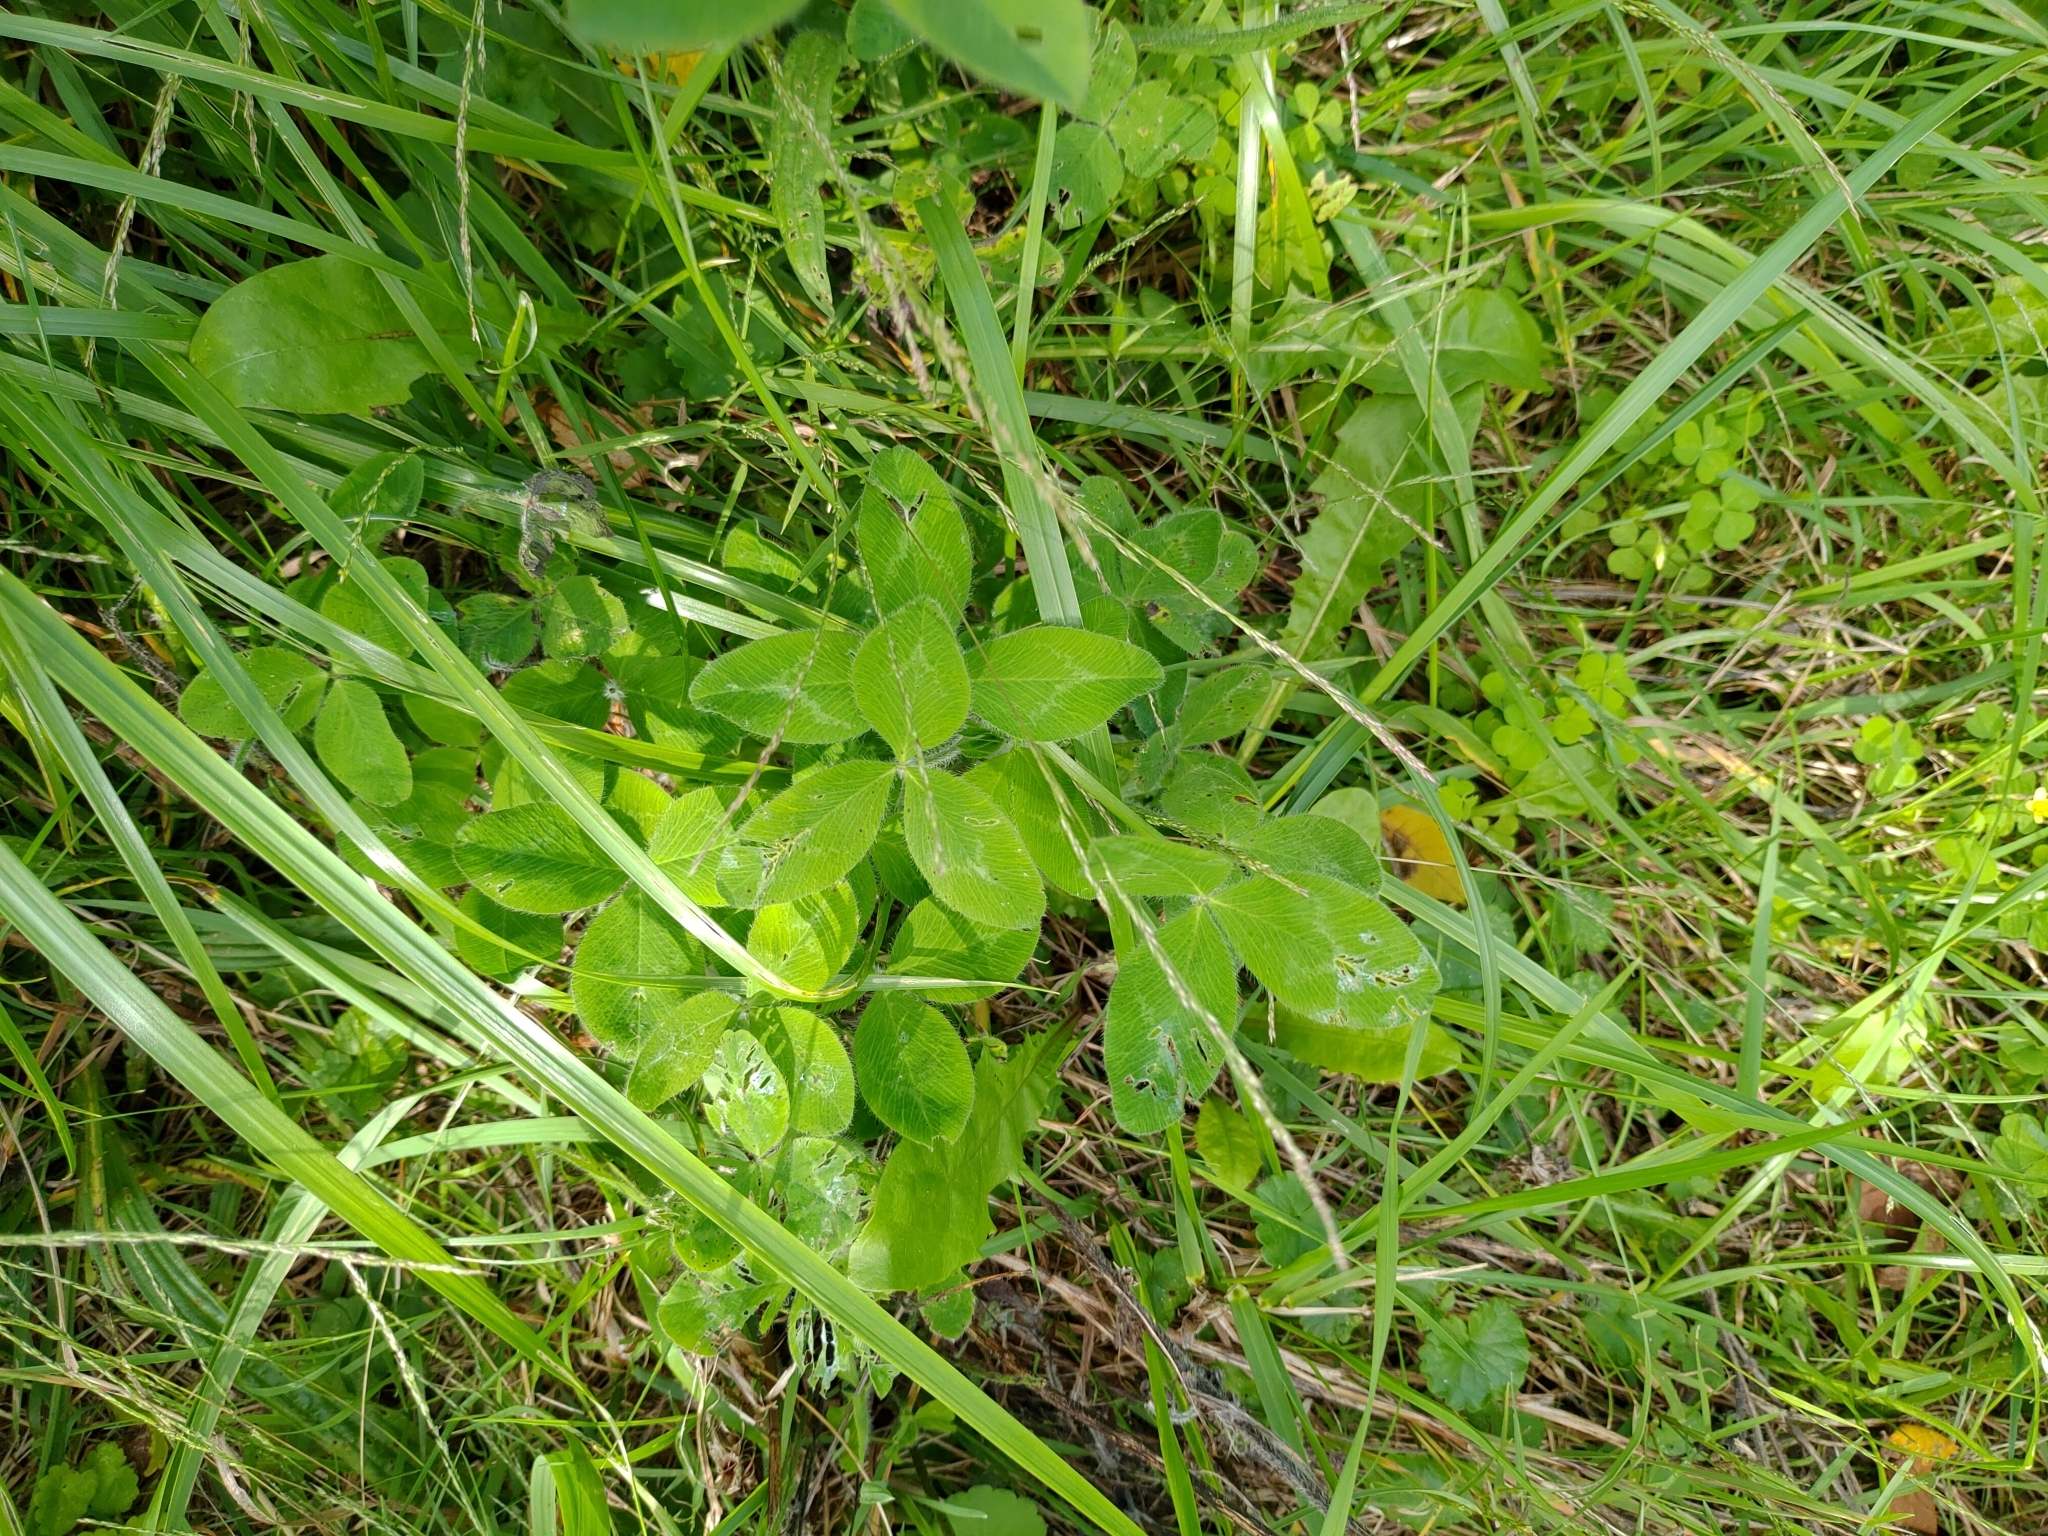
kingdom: Plantae
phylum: Tracheophyta
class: Magnoliopsida
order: Fabales
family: Fabaceae
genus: Trifolium
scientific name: Trifolium pratense
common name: Red clover
